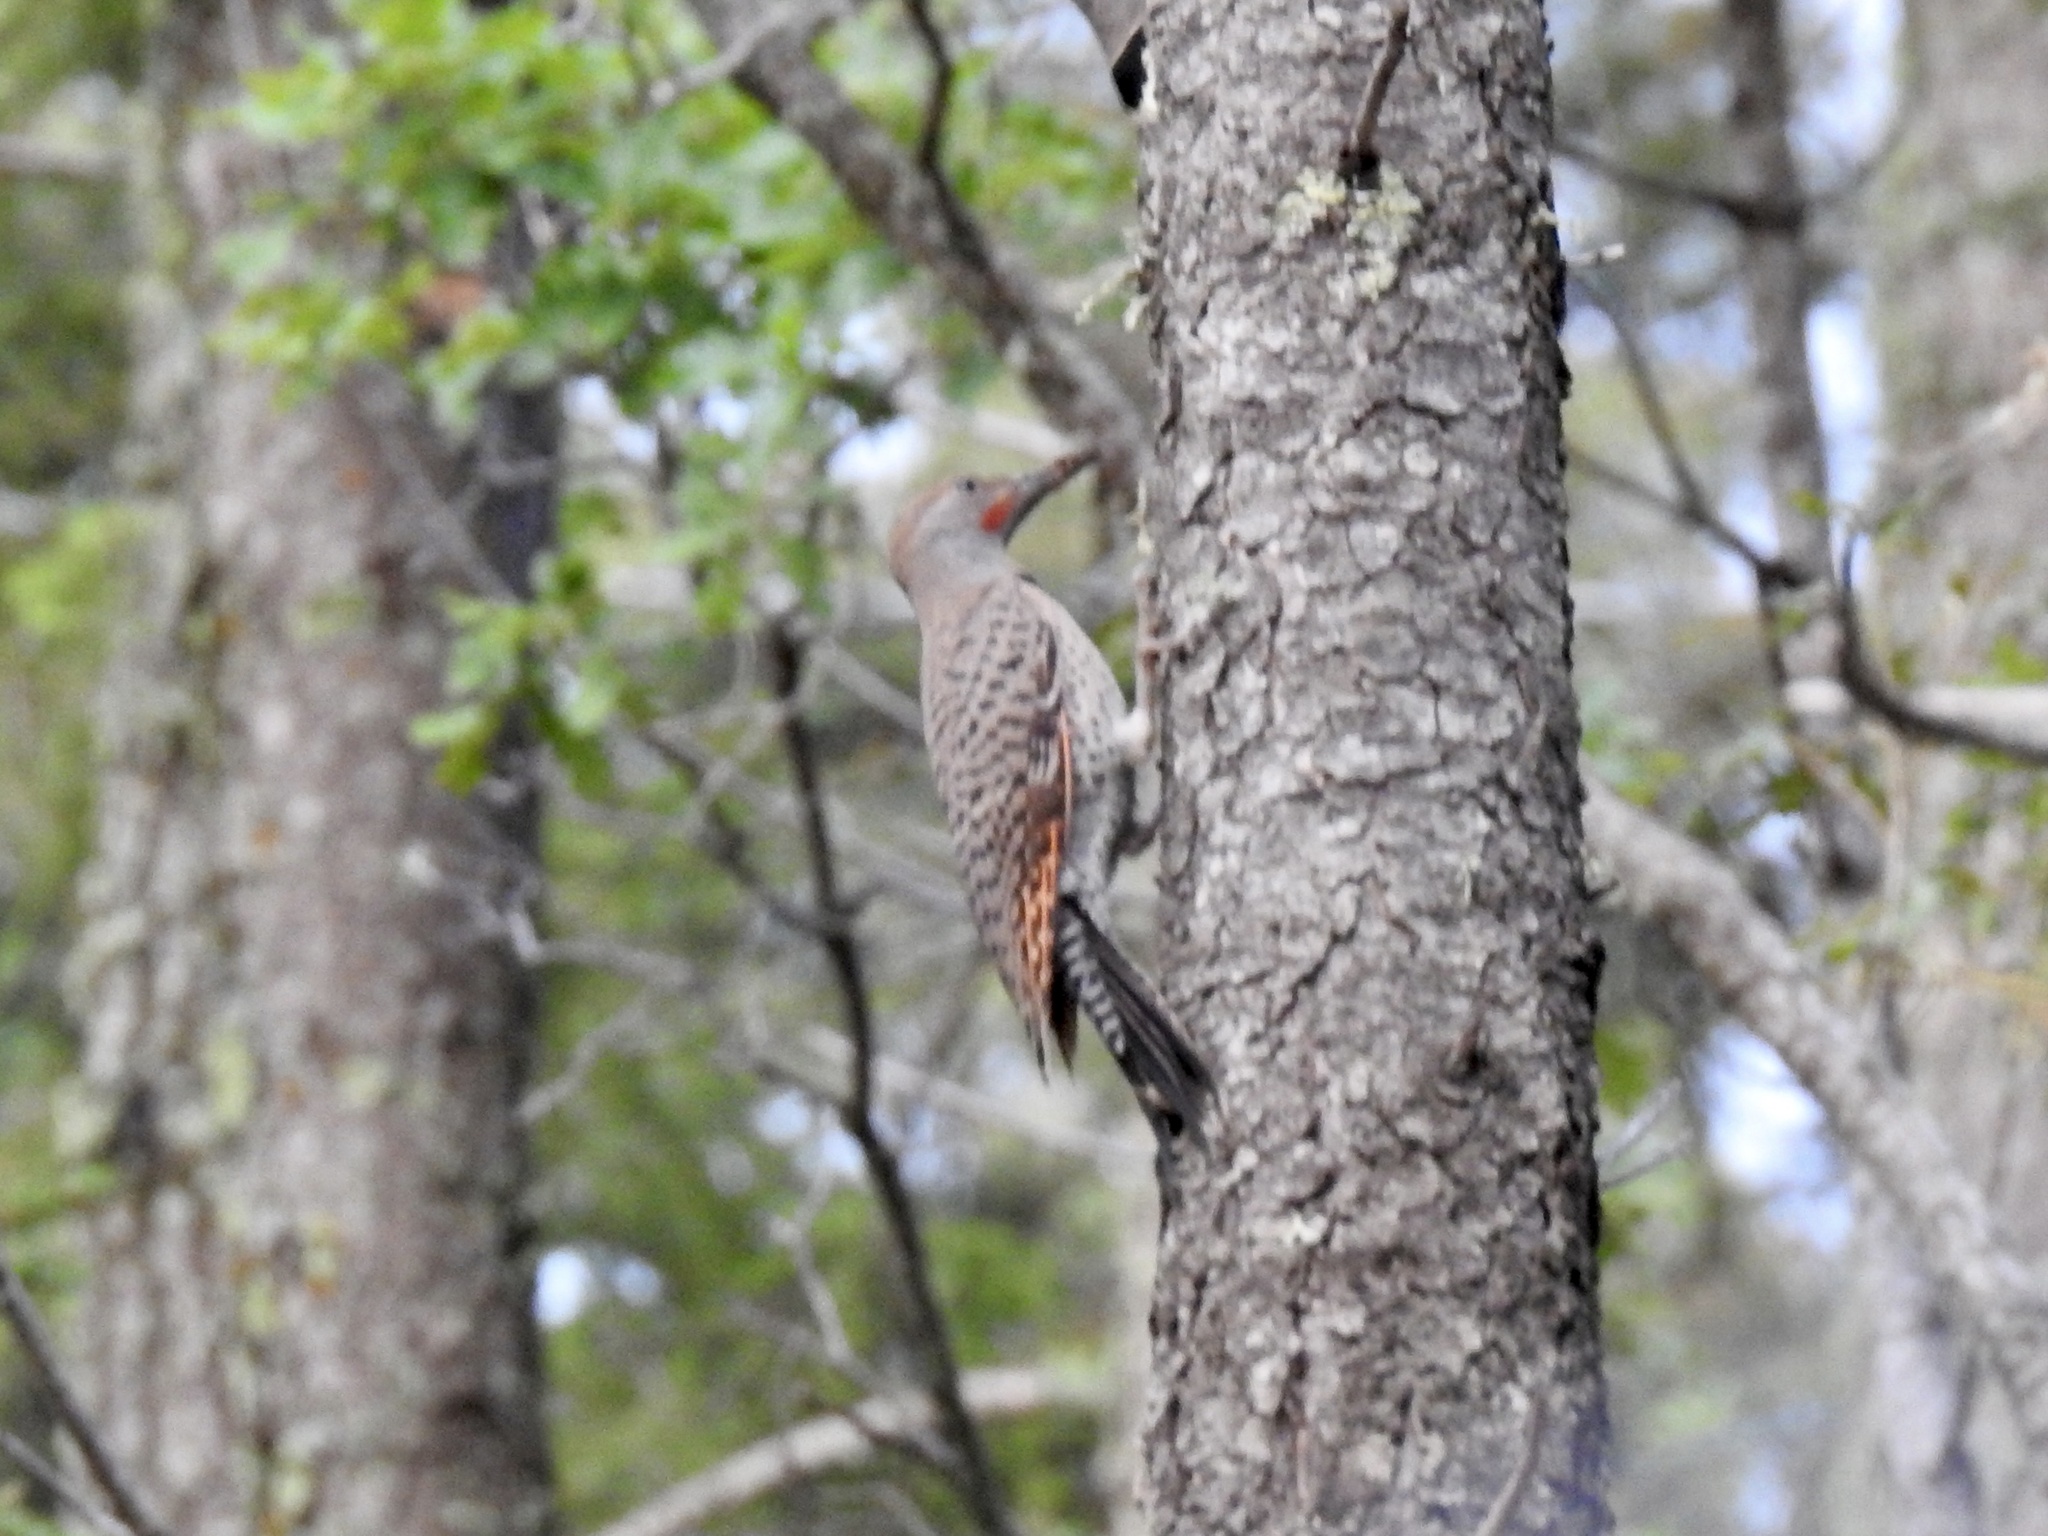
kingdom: Animalia
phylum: Chordata
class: Aves
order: Piciformes
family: Picidae
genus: Colaptes
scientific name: Colaptes auratus
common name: Northern flicker
